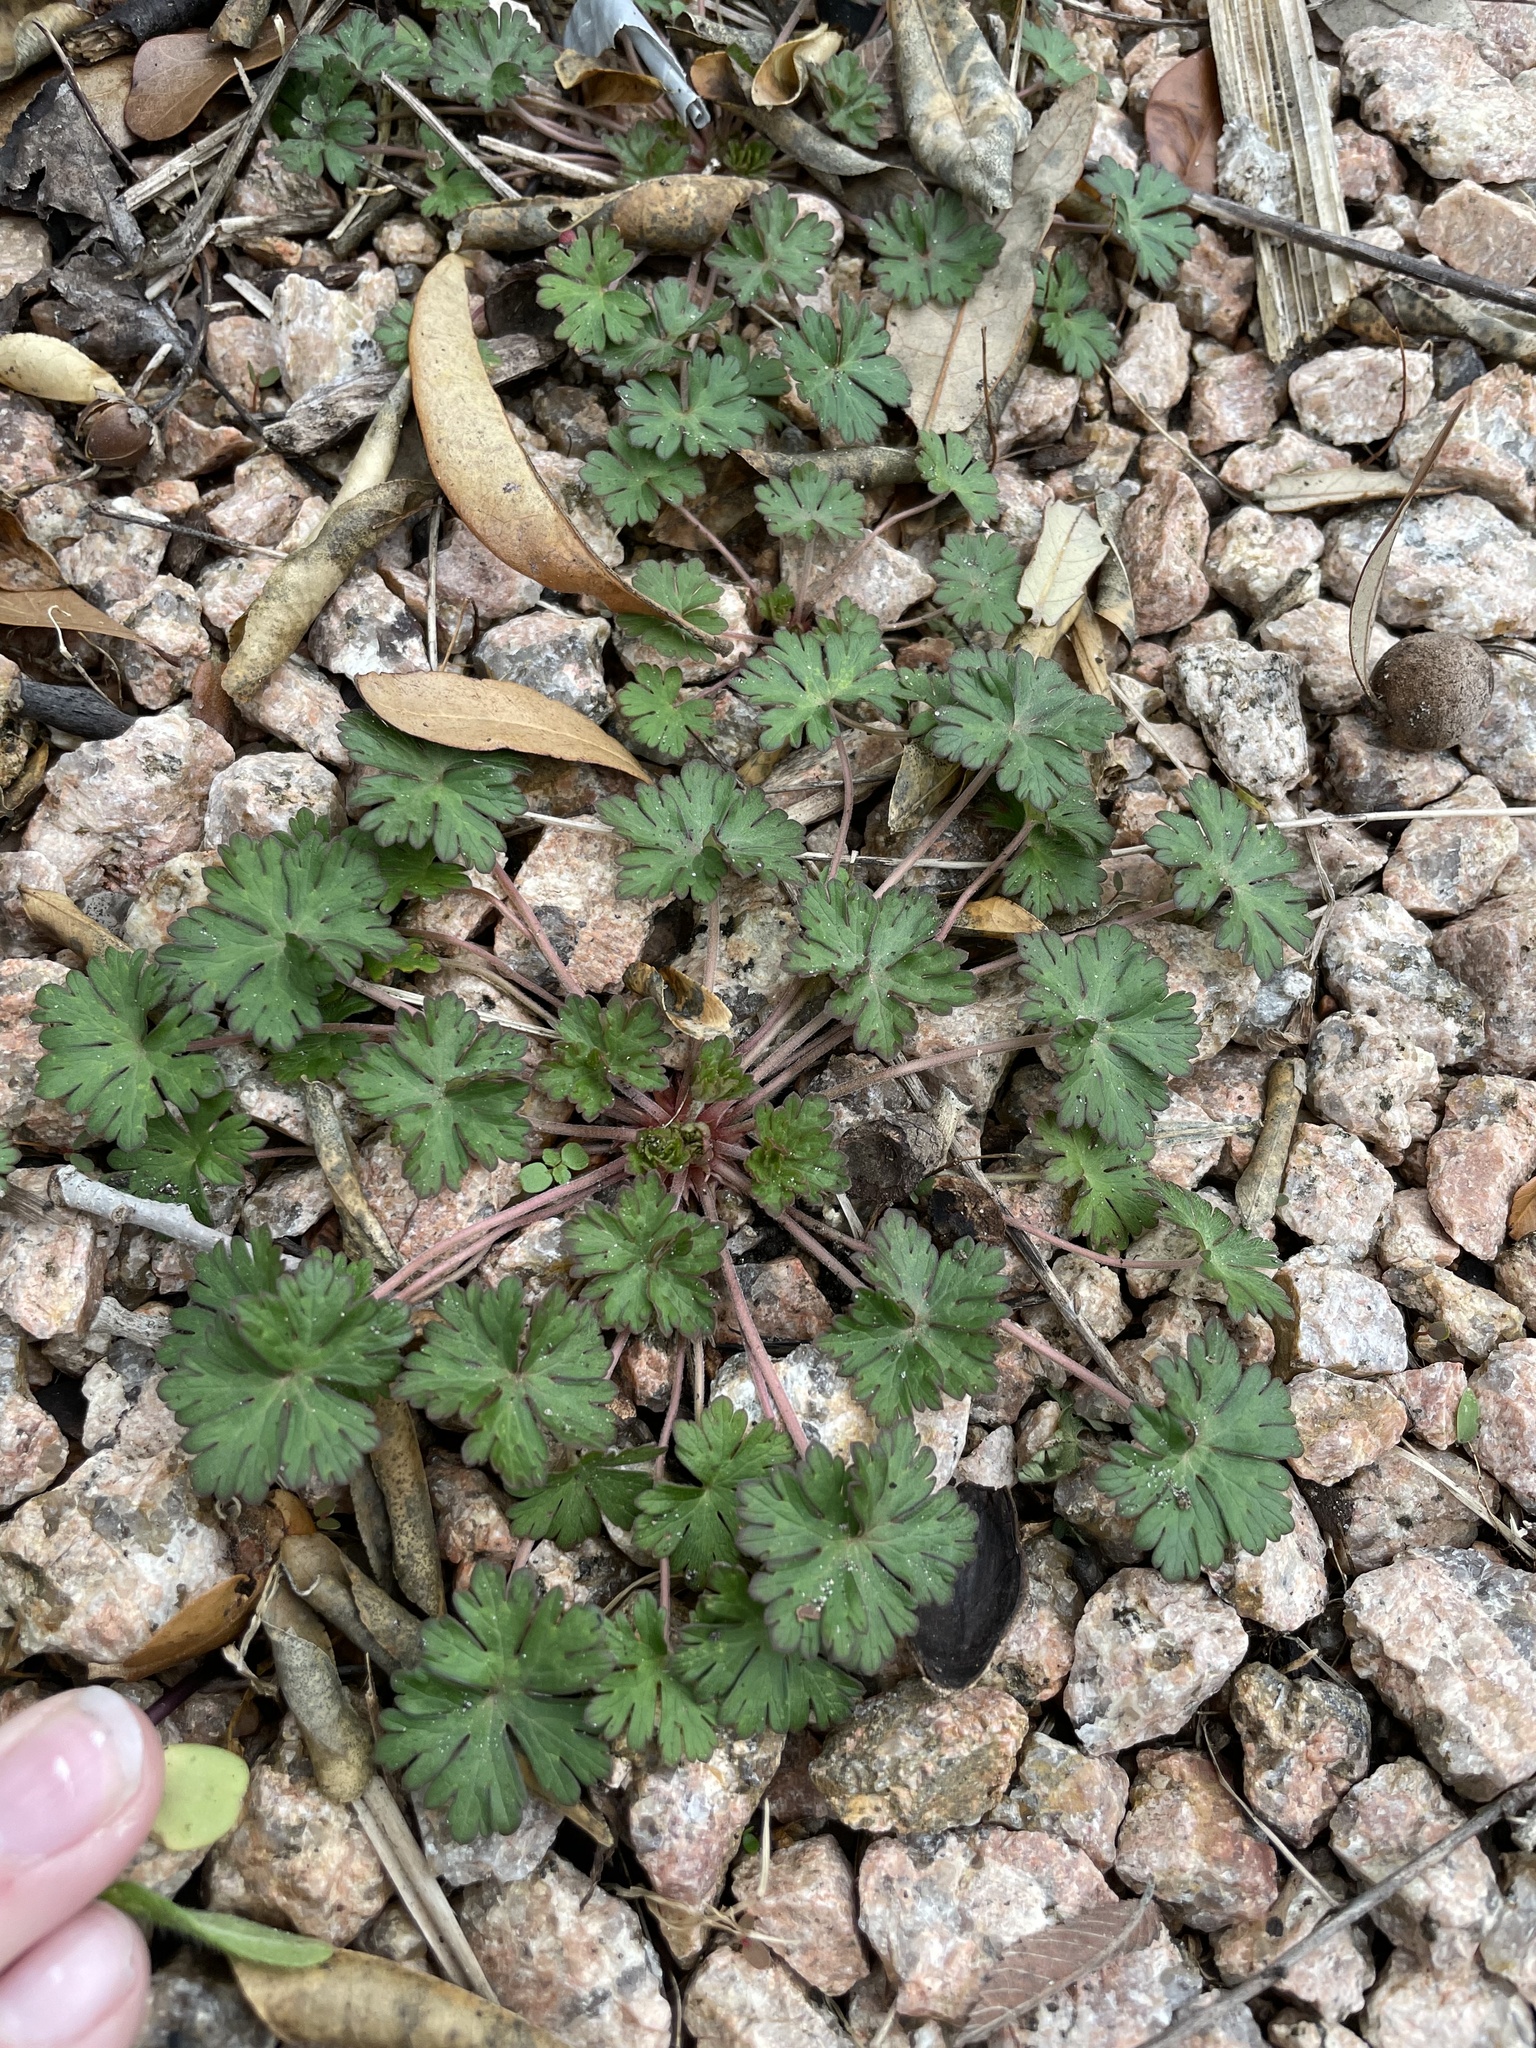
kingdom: Plantae
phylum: Tracheophyta
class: Magnoliopsida
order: Geraniales
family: Geraniaceae
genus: Geranium
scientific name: Geranium carolinianum
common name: Carolina crane's-bill
